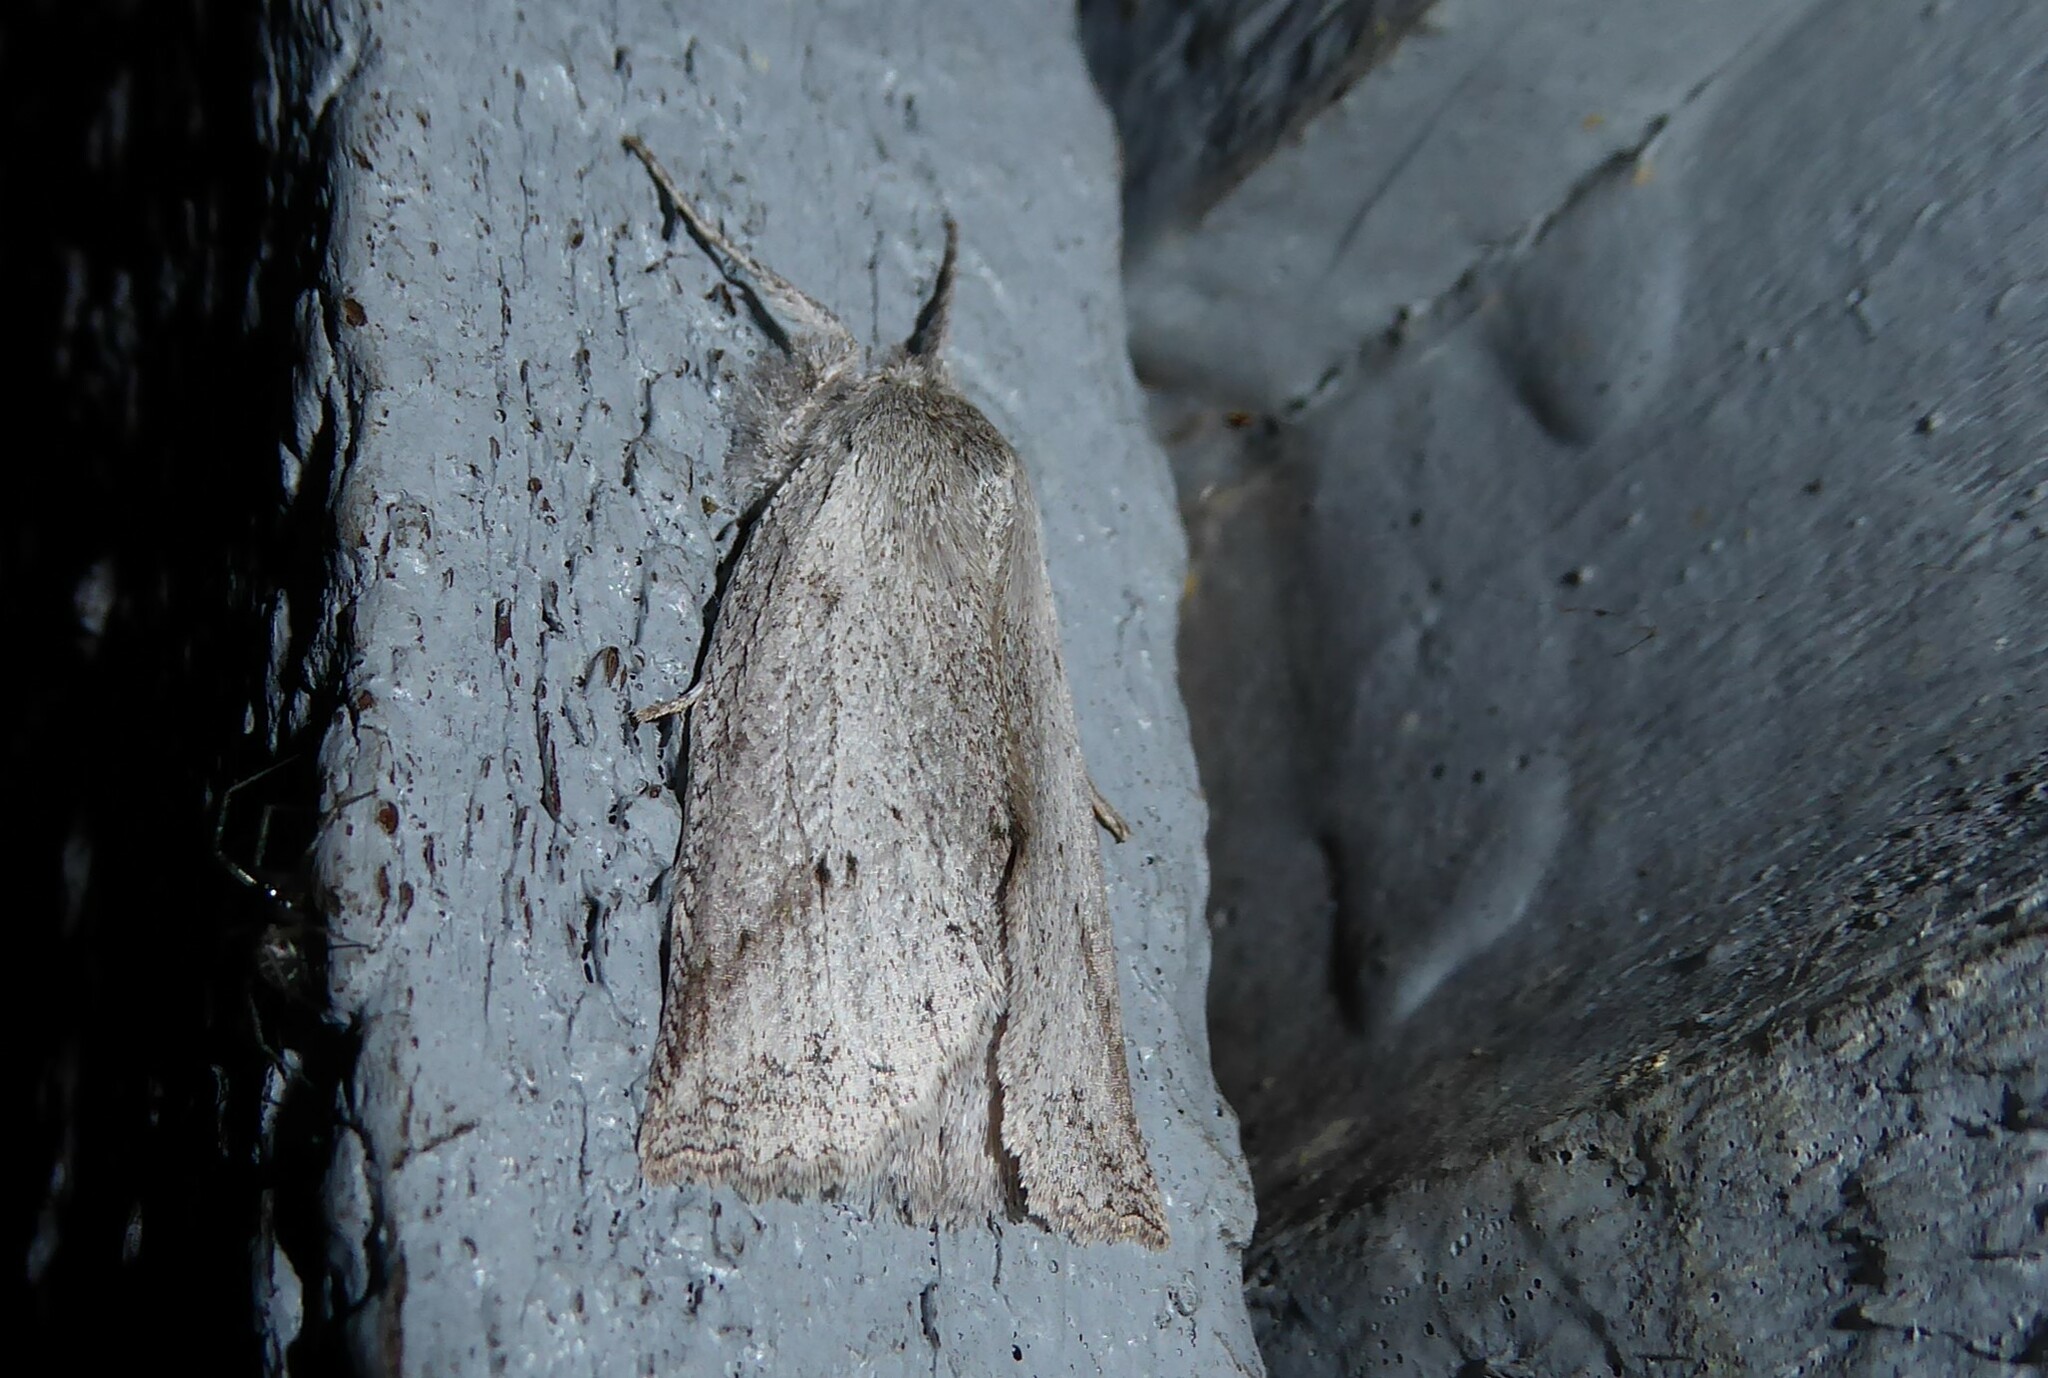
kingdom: Animalia
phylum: Arthropoda
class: Insecta
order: Lepidoptera
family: Geometridae
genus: Declana
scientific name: Declana leptomera
